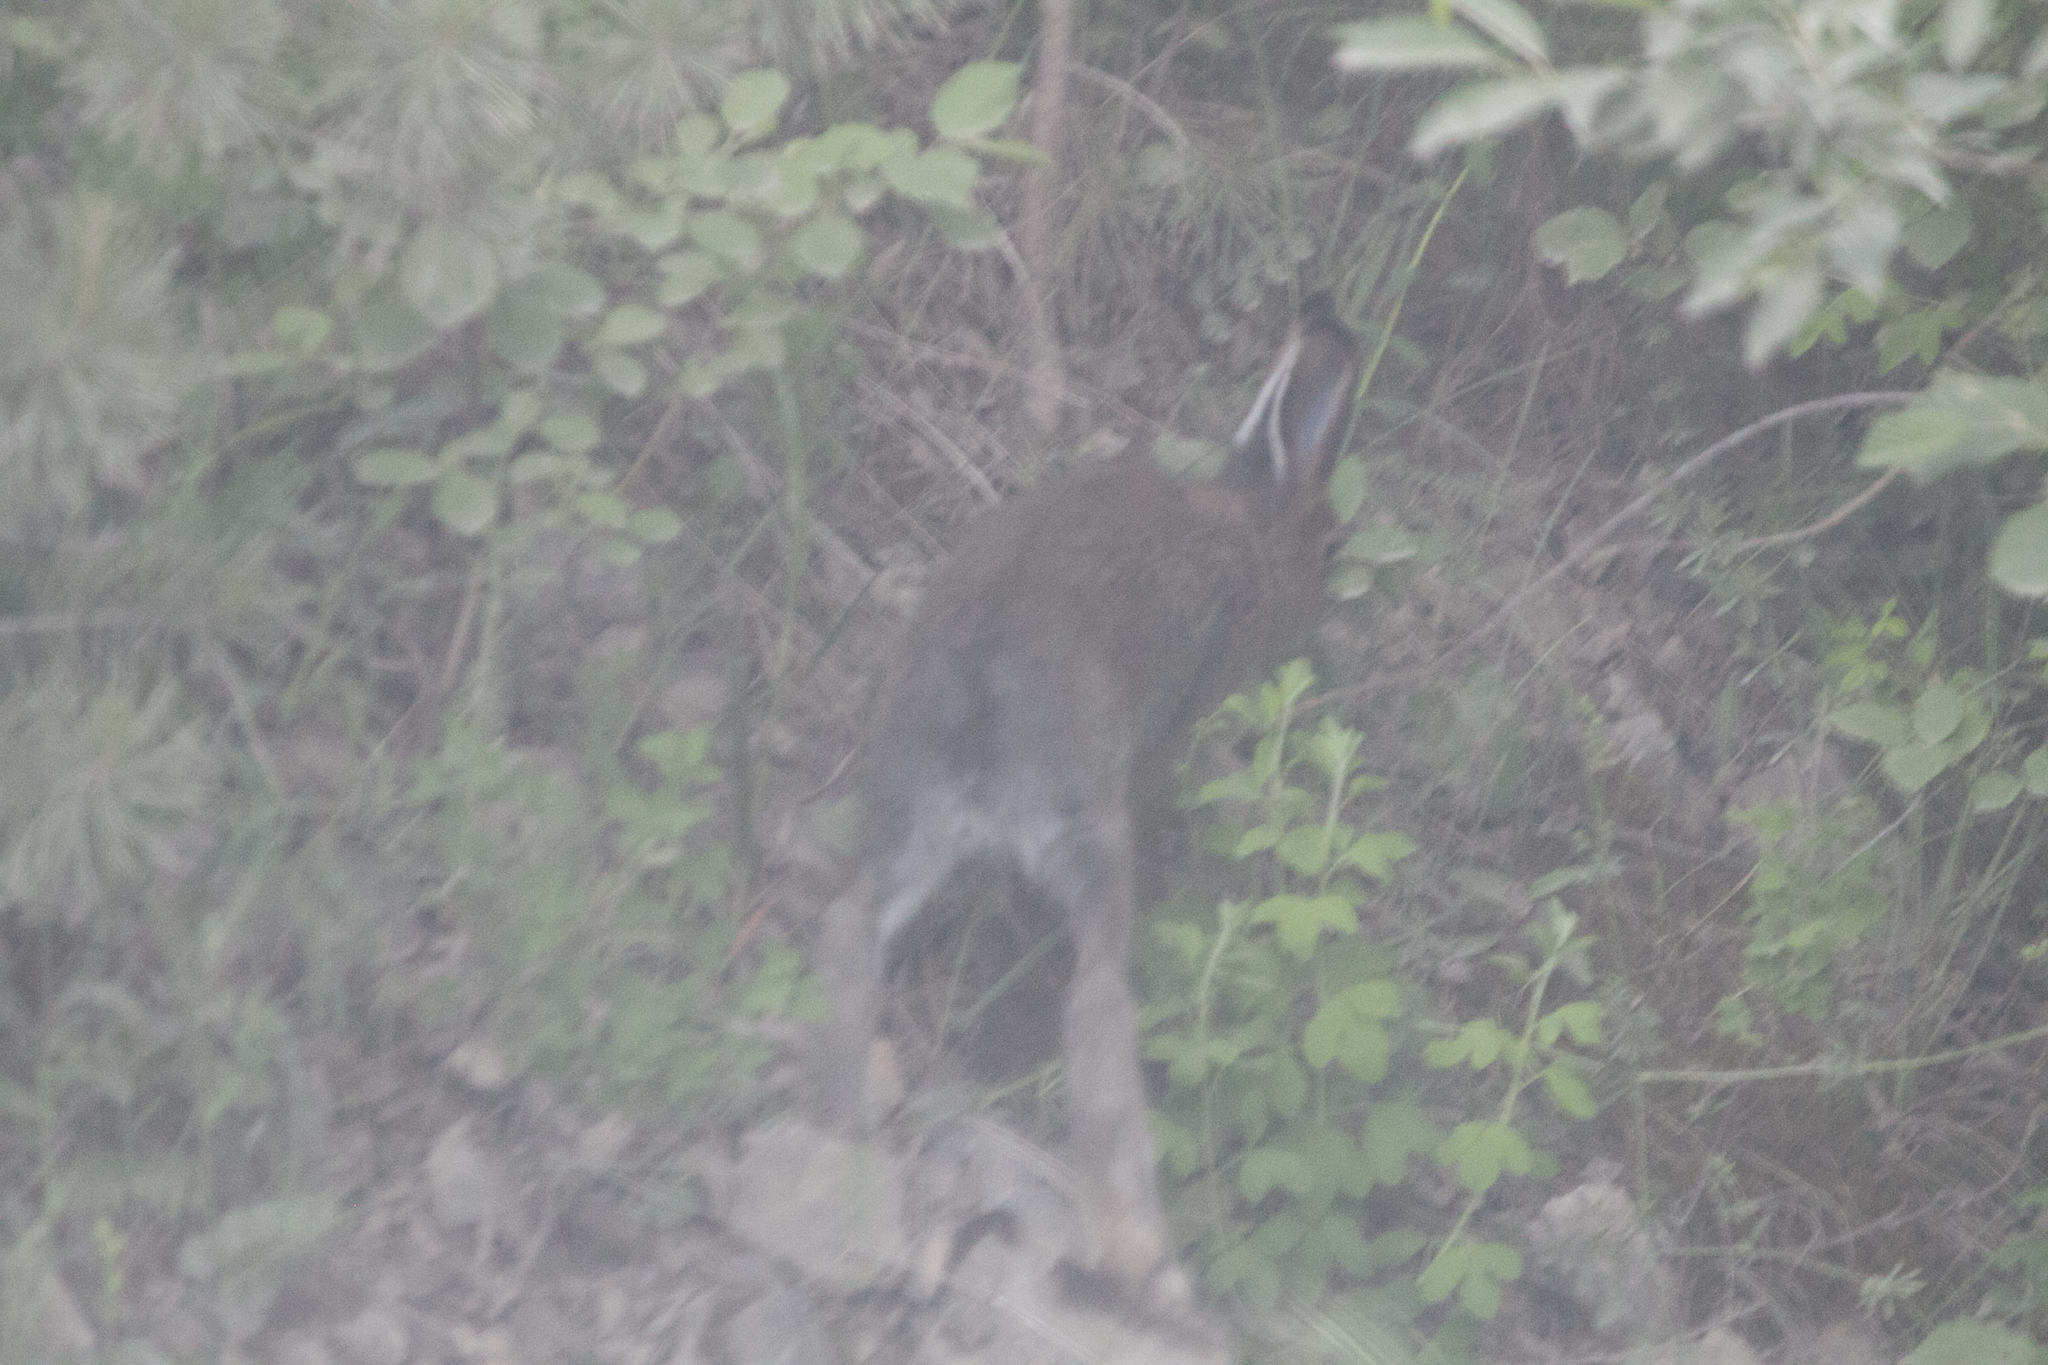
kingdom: Animalia
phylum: Chordata
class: Mammalia
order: Lagomorpha
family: Leporidae
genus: Lepus
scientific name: Lepus timidus
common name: Mountain hare
